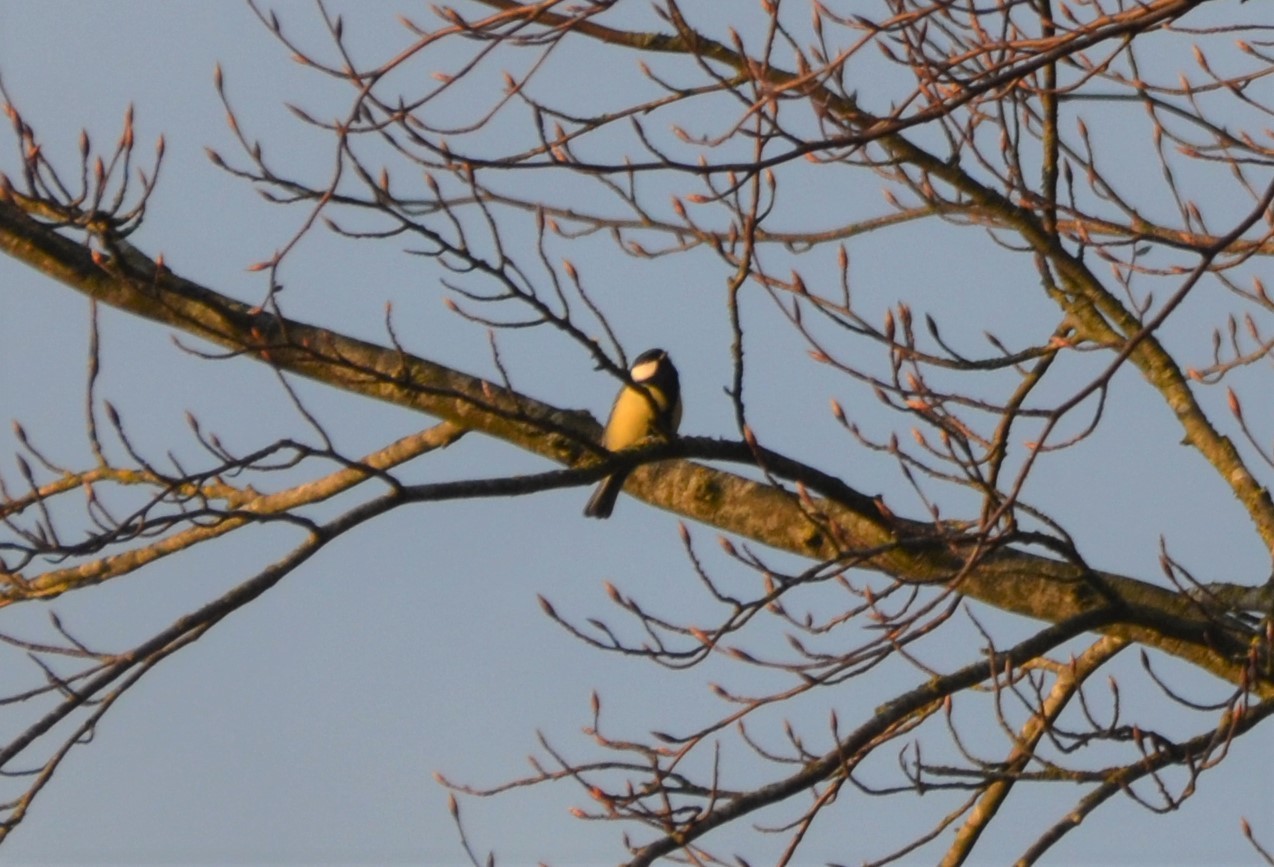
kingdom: Animalia
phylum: Chordata
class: Aves
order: Passeriformes
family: Paridae
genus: Parus
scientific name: Parus major
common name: Great tit
